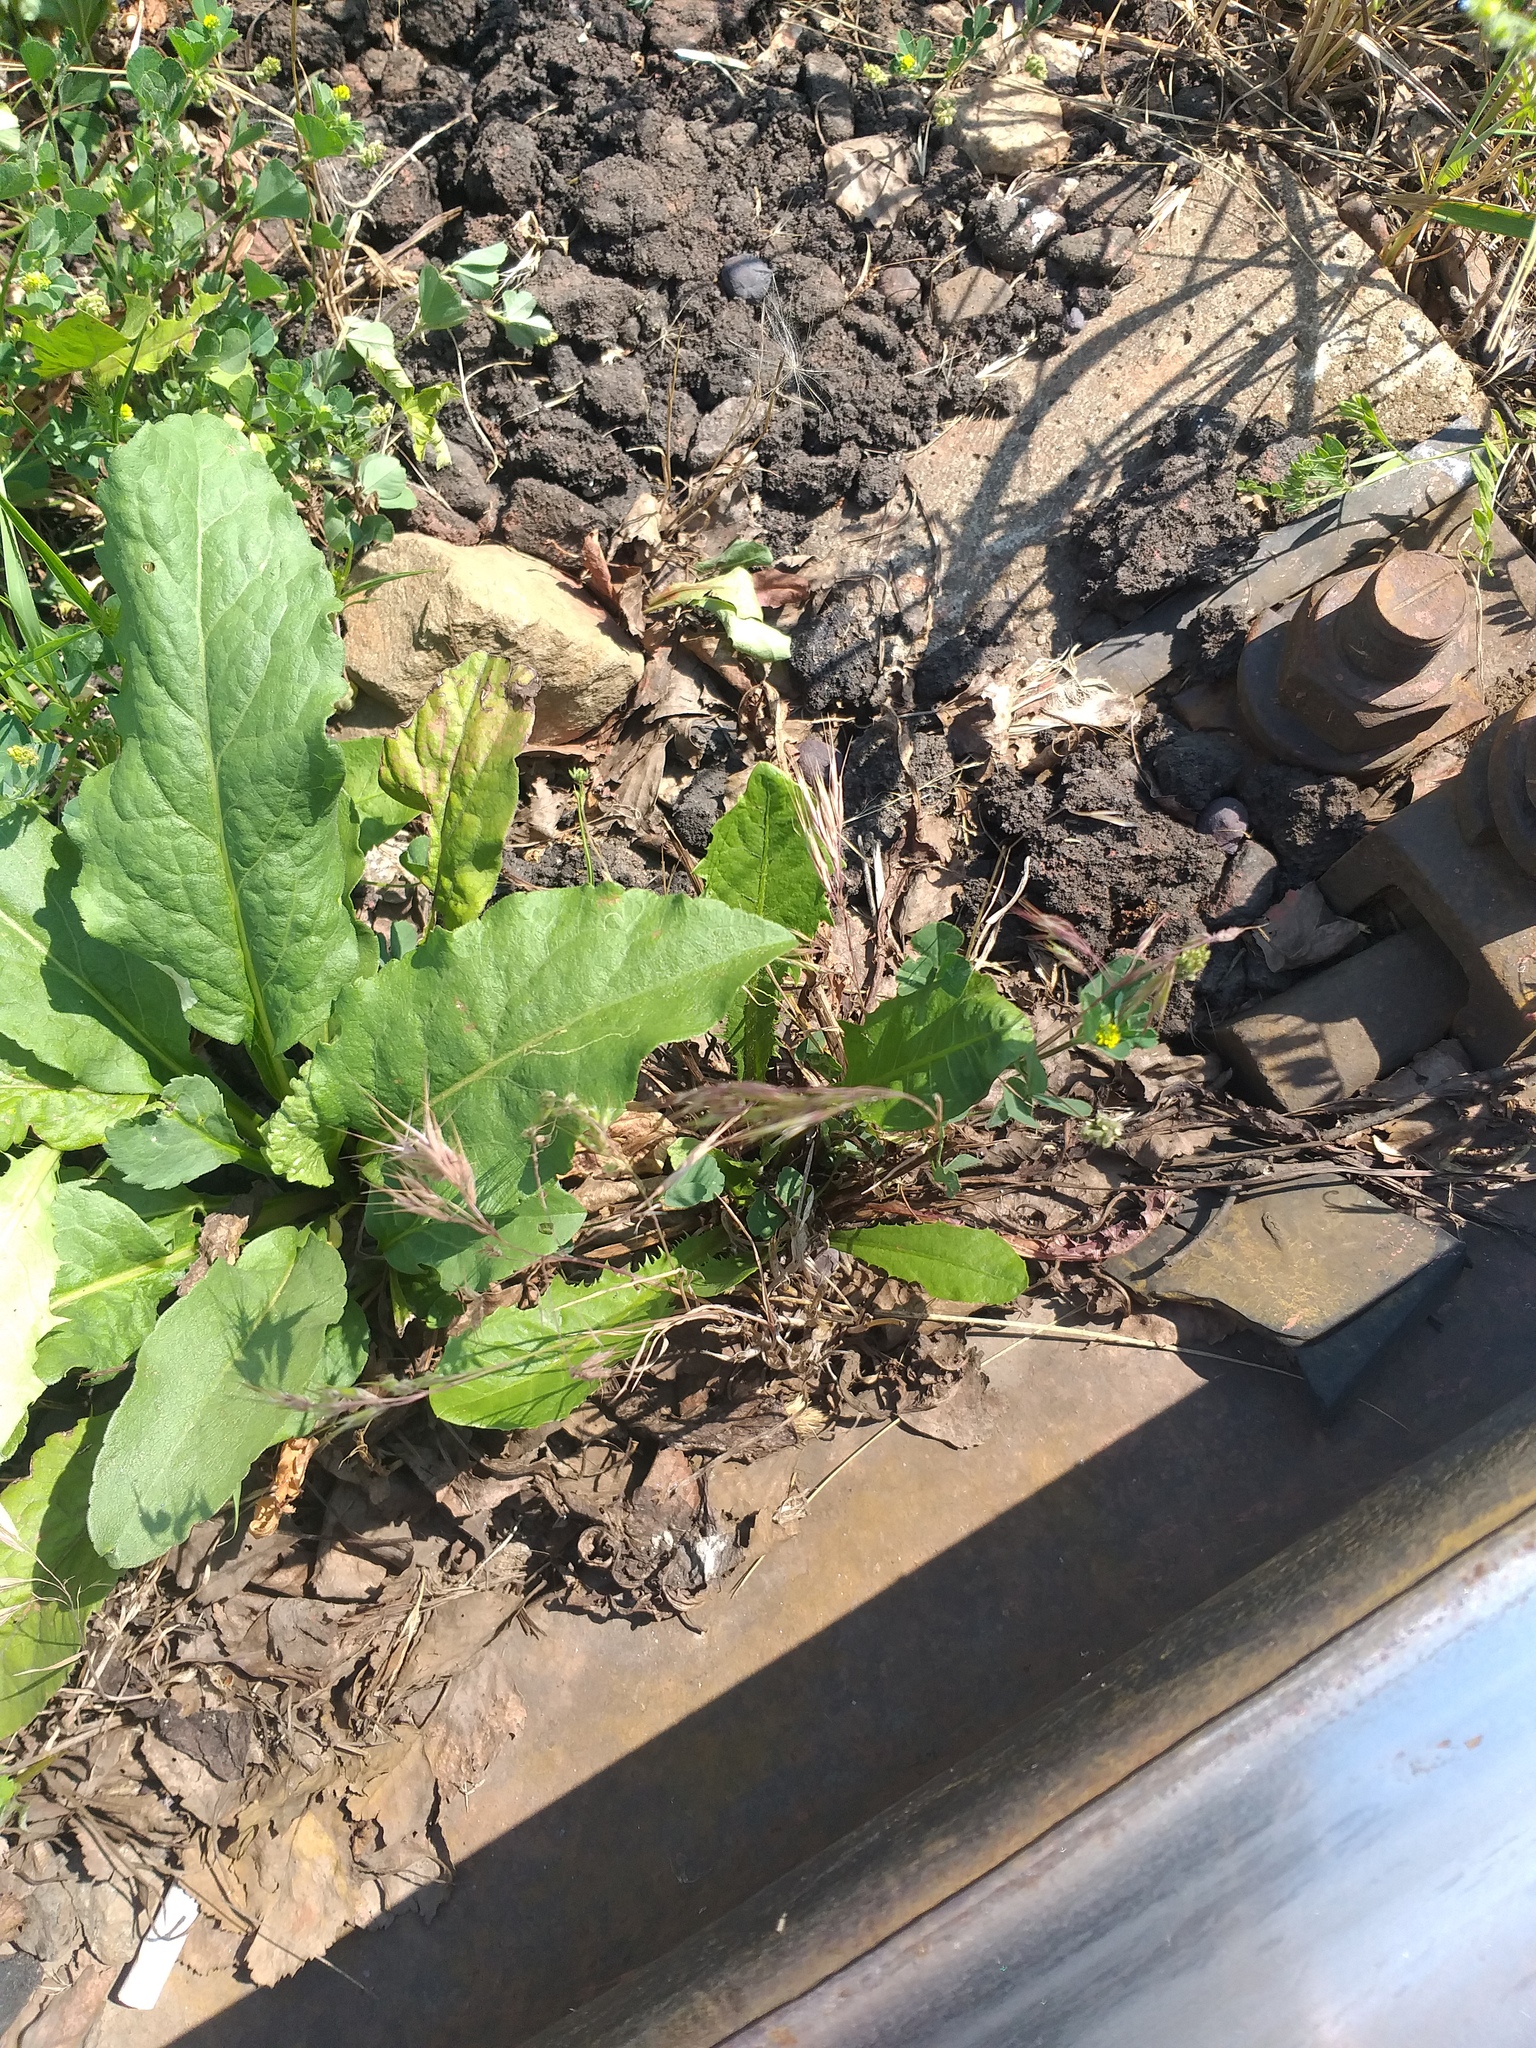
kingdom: Plantae
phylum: Tracheophyta
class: Liliopsida
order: Poales
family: Poaceae
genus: Bromus
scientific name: Bromus tectorum
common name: Cheatgrass
